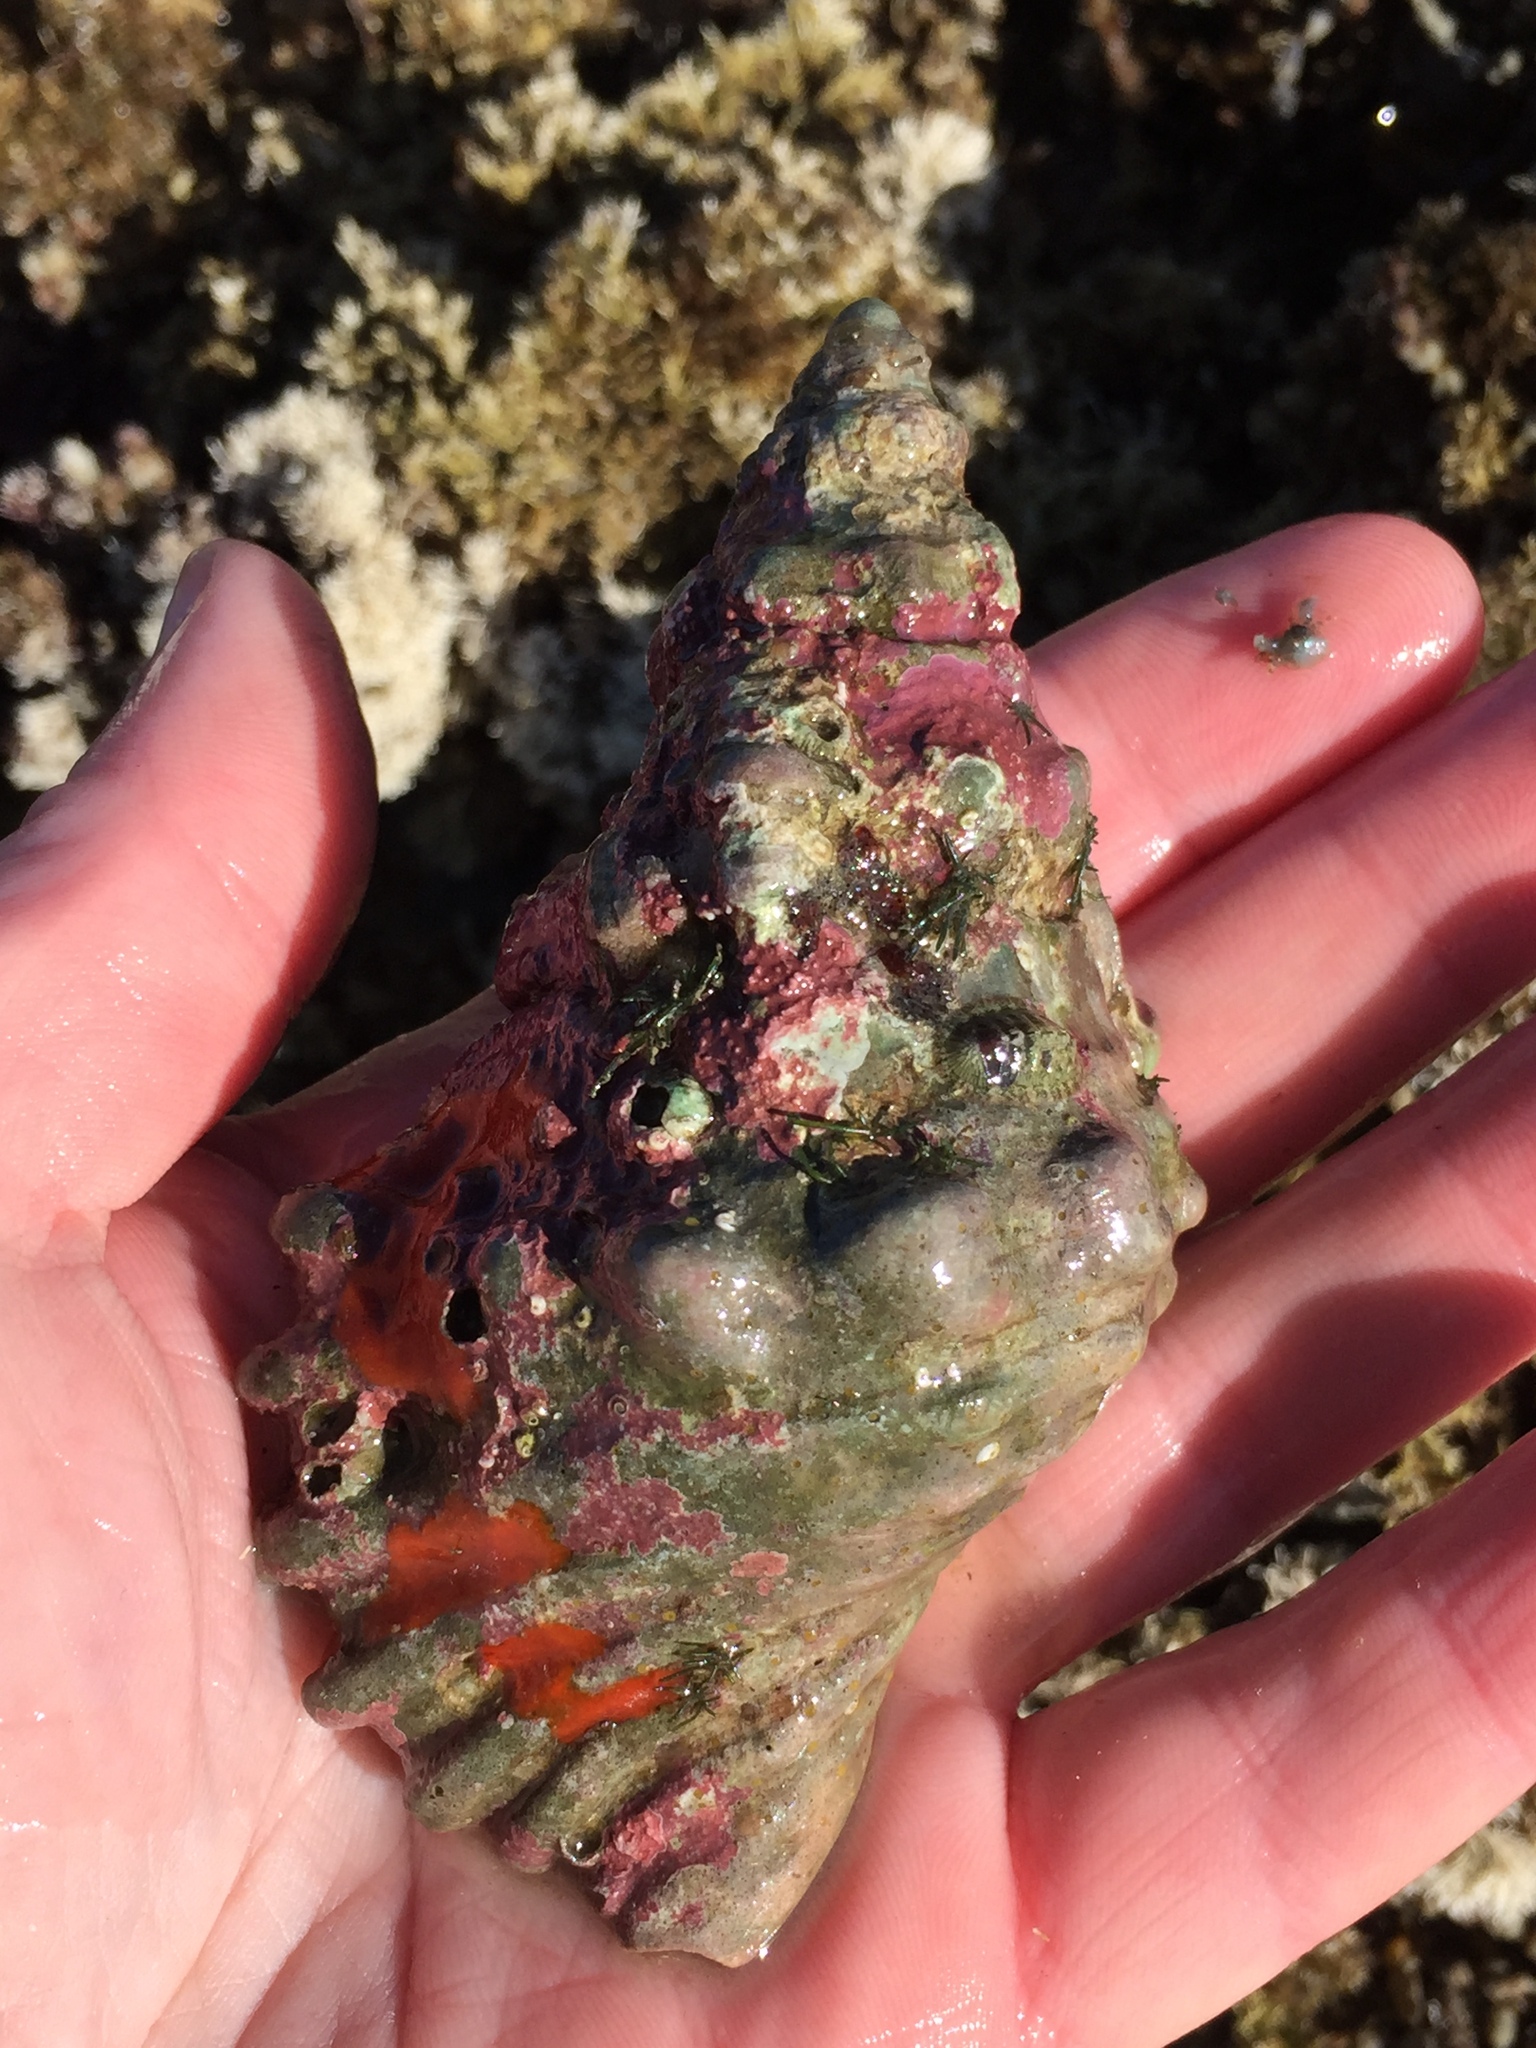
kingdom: Animalia
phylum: Mollusca
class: Gastropoda
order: Littorinimorpha
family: Cymatiidae
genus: Cabestana
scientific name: Cabestana spengleri
